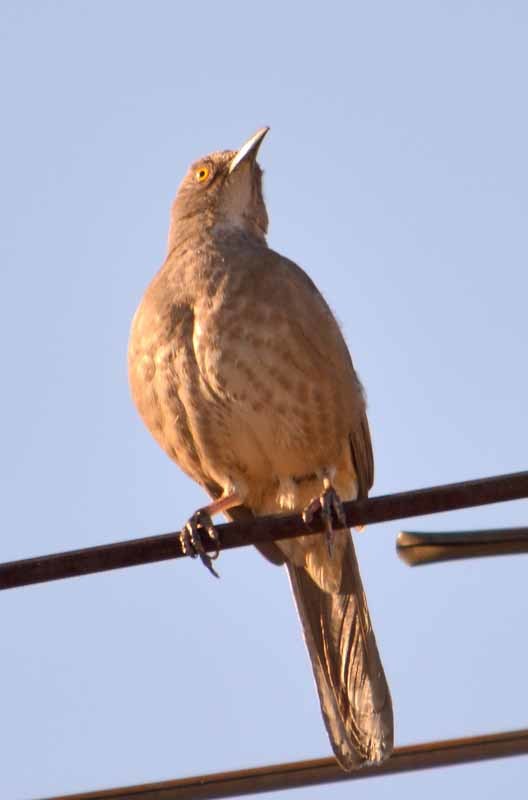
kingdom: Animalia
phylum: Chordata
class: Aves
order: Passeriformes
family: Mimidae
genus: Toxostoma
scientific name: Toxostoma curvirostre
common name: Curve-billed thrasher
